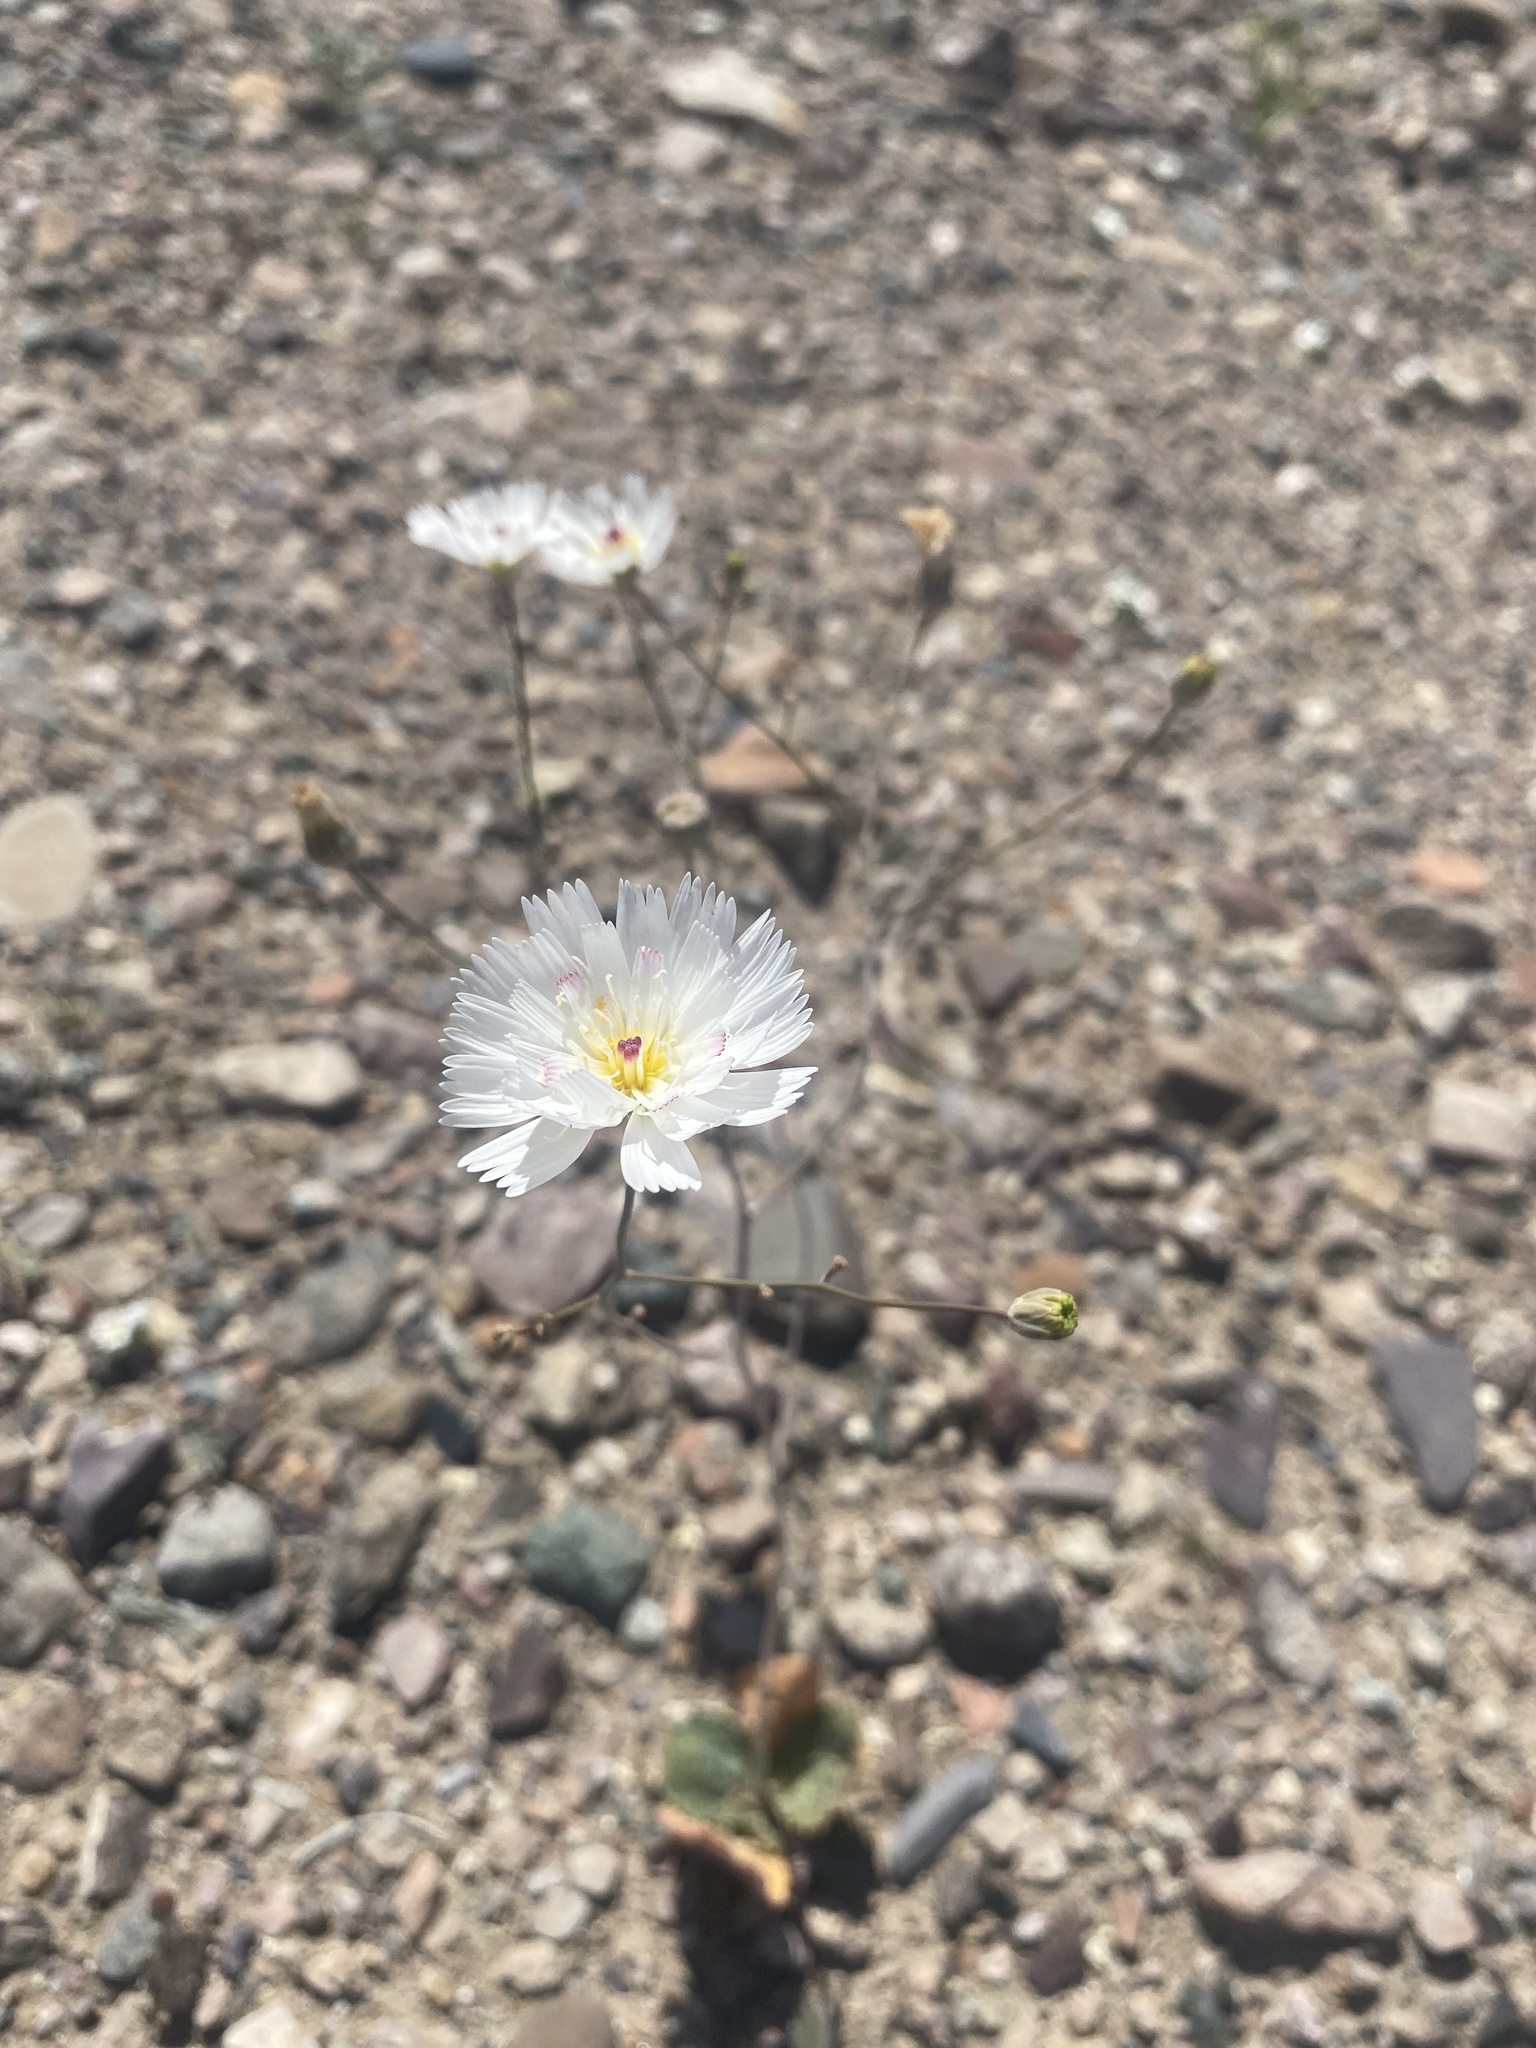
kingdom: Plantae
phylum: Tracheophyta
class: Magnoliopsida
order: Asterales
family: Asteraceae
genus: Atrichoseris
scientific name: Atrichoseris platyphylla
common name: Tobaccoweed
